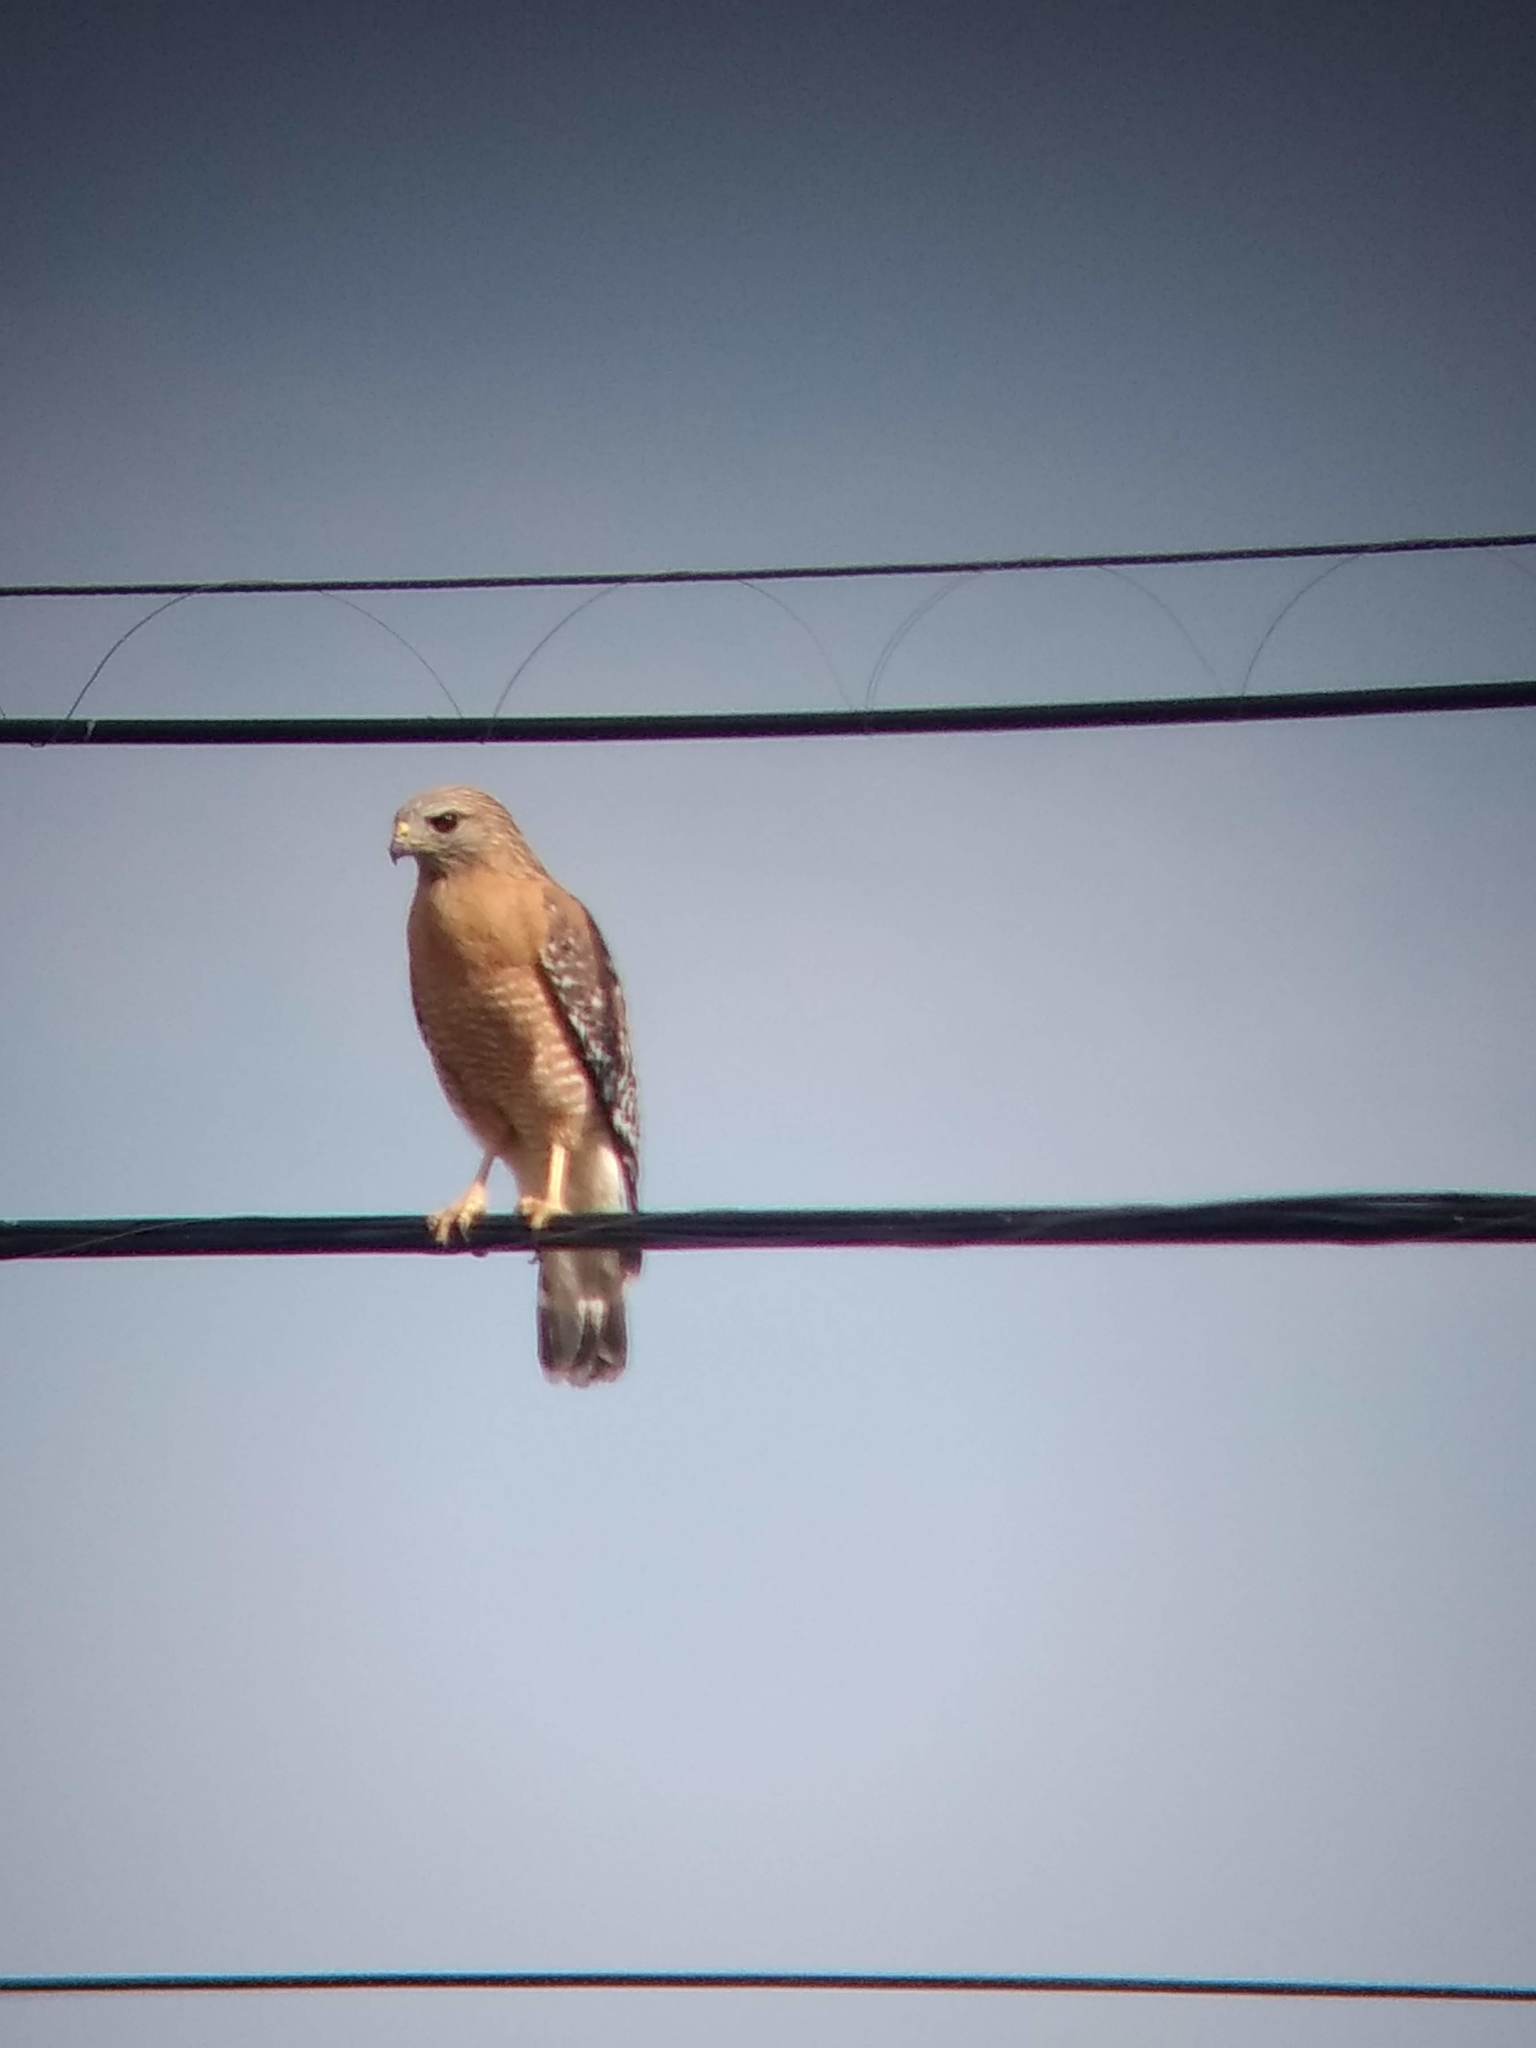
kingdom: Animalia
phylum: Chordata
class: Aves
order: Accipitriformes
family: Accipitridae
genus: Buteo
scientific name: Buteo lineatus
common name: Red-shouldered hawk
